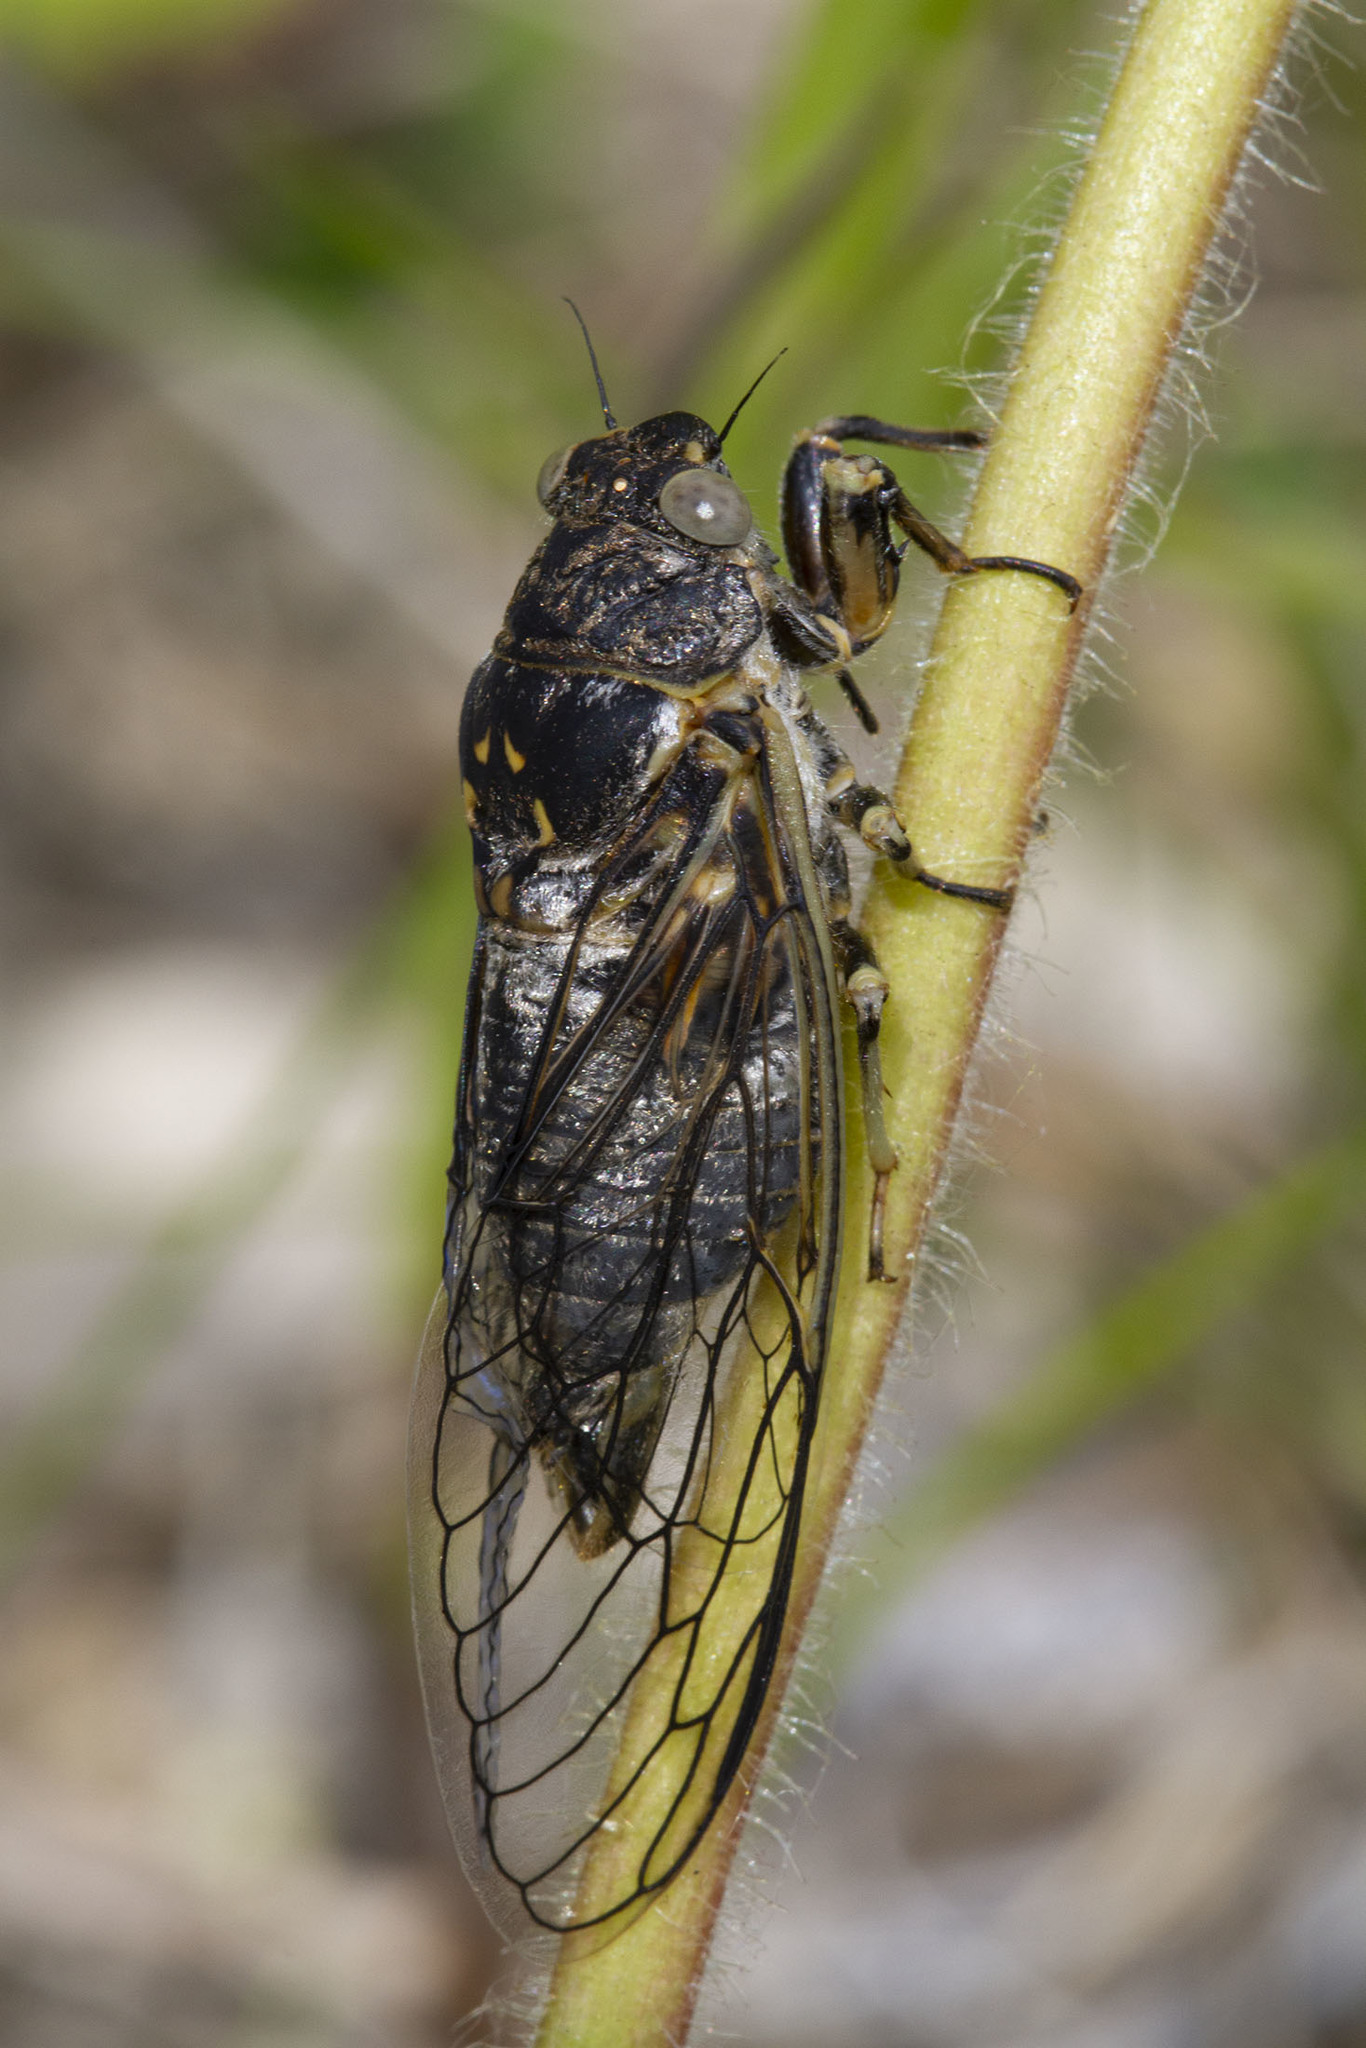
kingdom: Animalia
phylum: Arthropoda
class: Insecta
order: Hemiptera
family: Cicadidae
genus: Okanagana
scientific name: Okanagana canadensis
